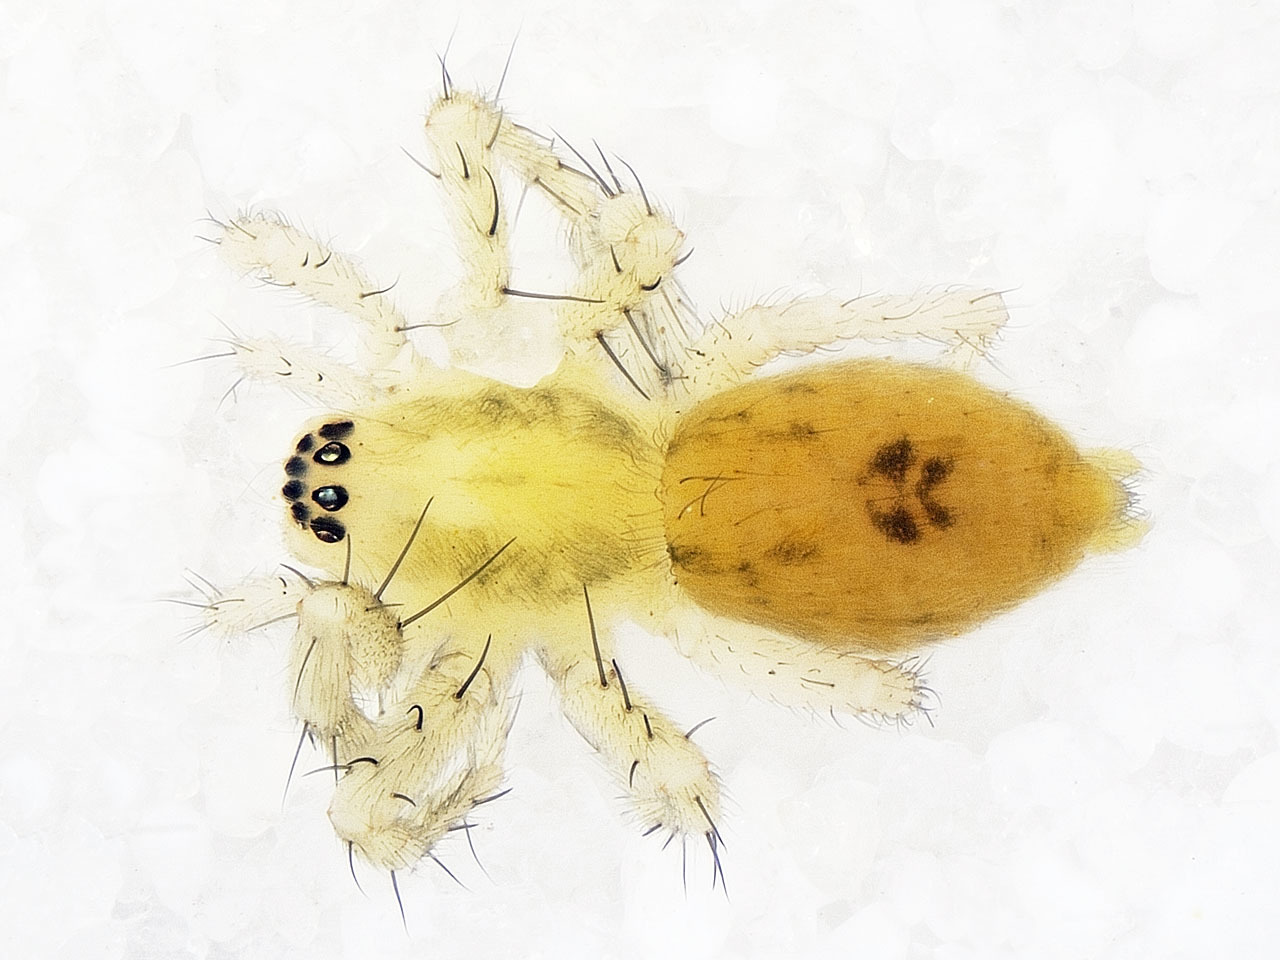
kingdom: Animalia
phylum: Arthropoda
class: Arachnida
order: Araneae
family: Anyphaenidae
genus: Anyphaena
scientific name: Anyphaena accentuata
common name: Buzzing spider
